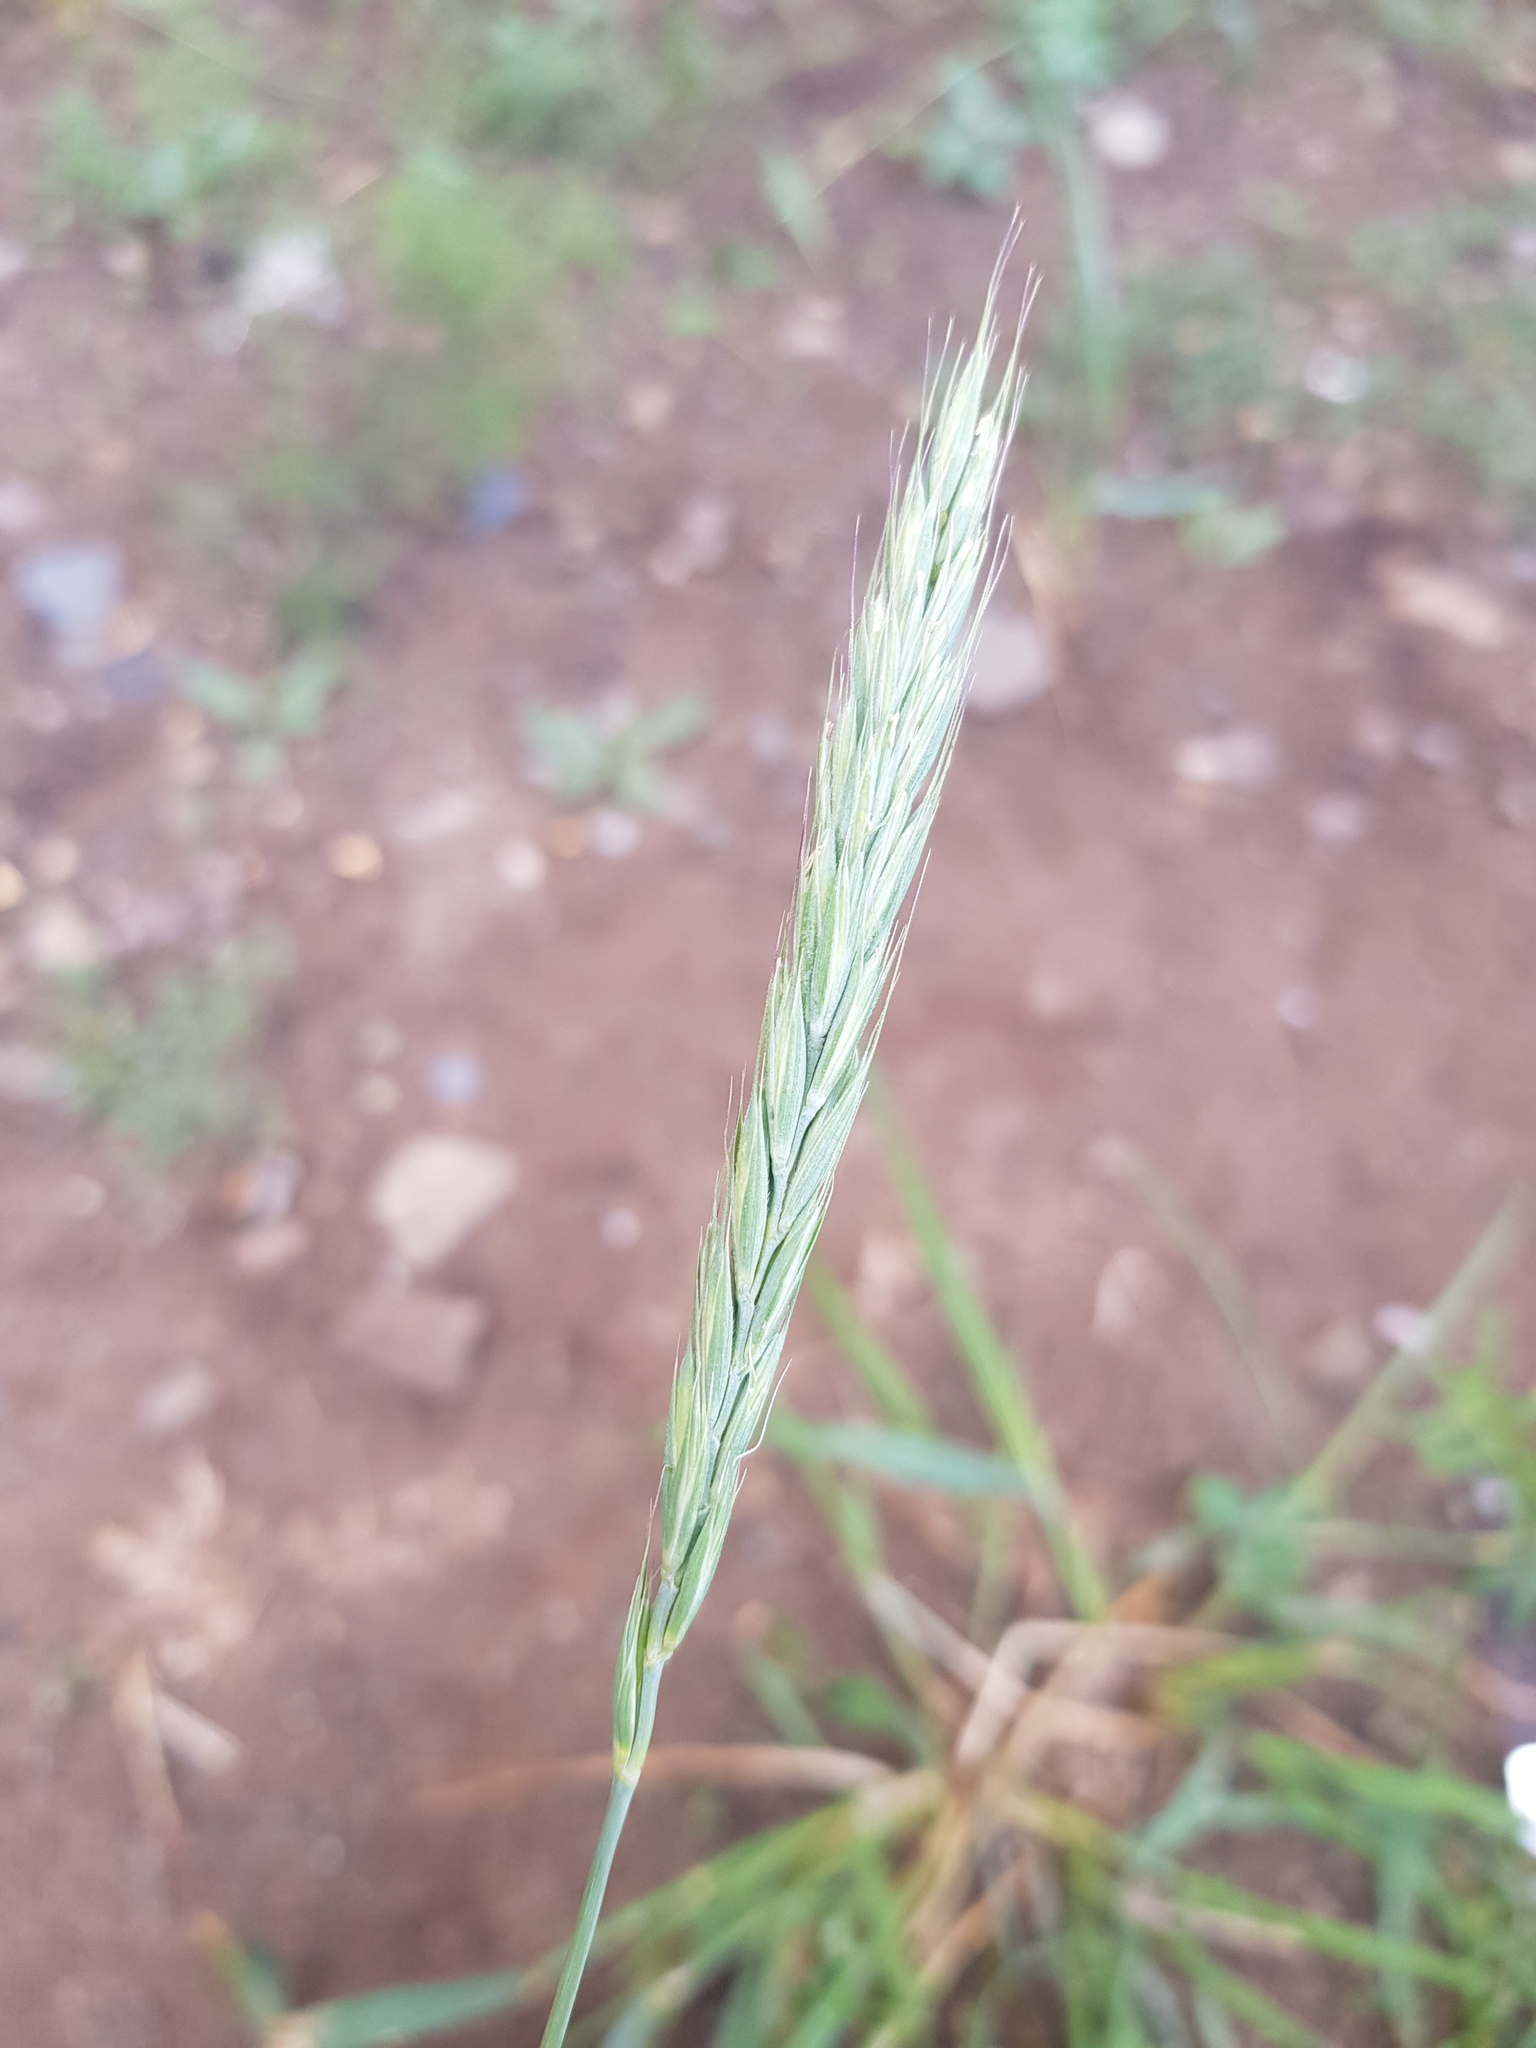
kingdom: Plantae
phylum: Tracheophyta
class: Liliopsida
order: Poales
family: Poaceae
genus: Leymus
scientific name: Leymus chinensis
